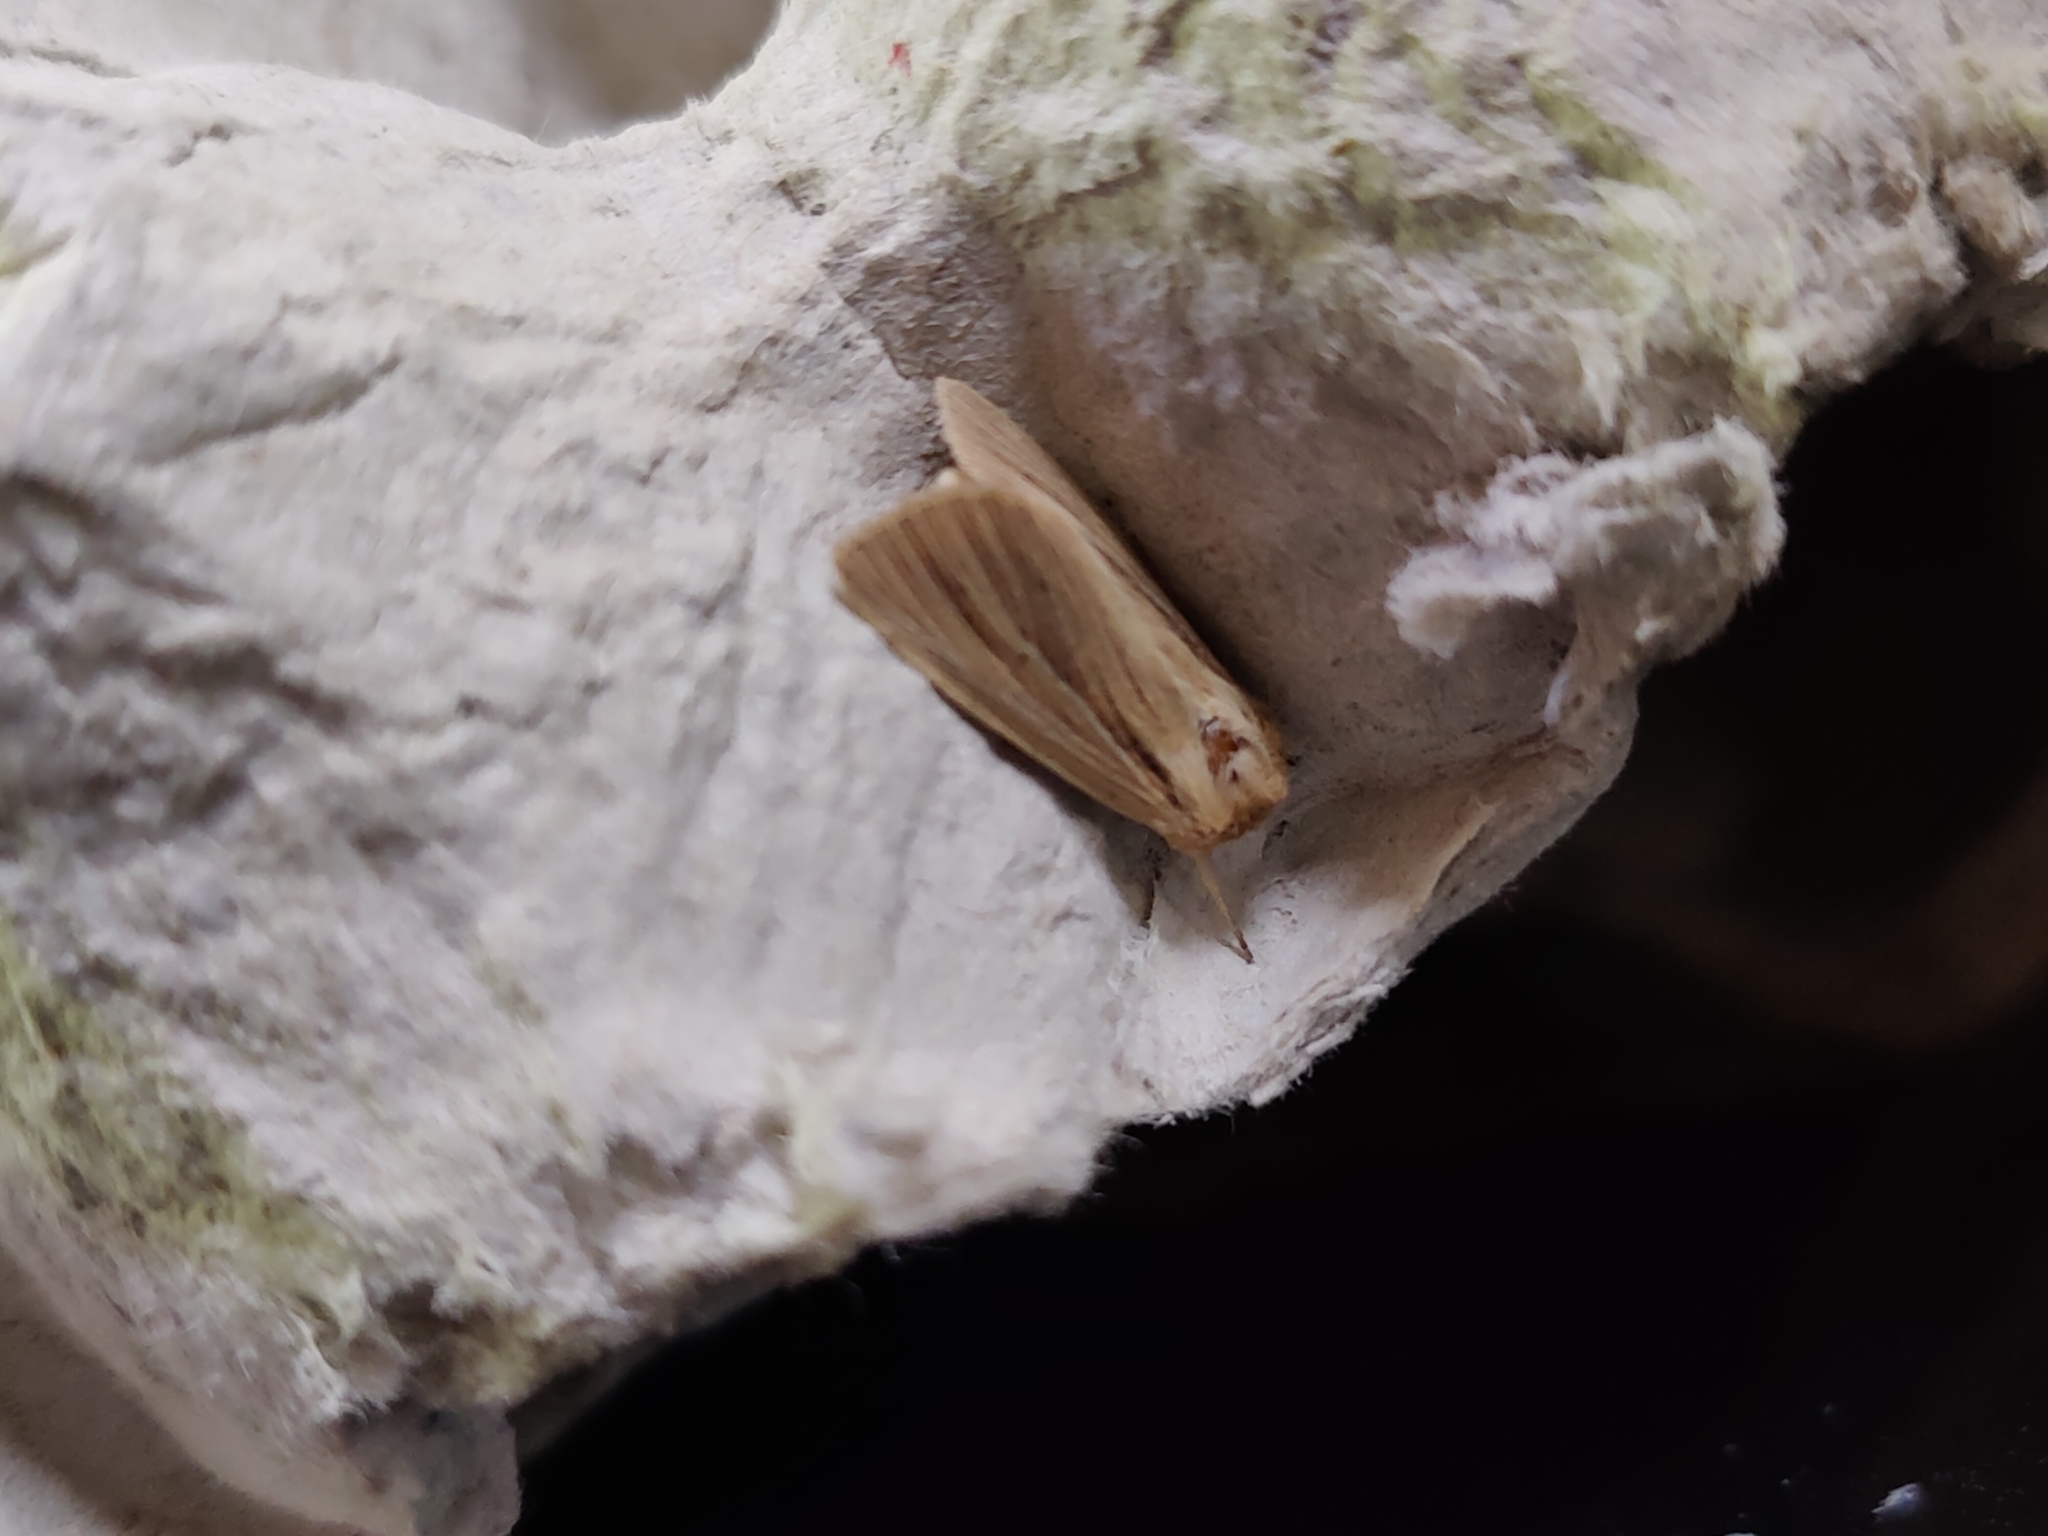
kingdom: Animalia
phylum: Arthropoda
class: Insecta
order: Lepidoptera
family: Noctuidae
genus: Mythimna
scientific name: Mythimna impura
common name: Smoky wainscot
